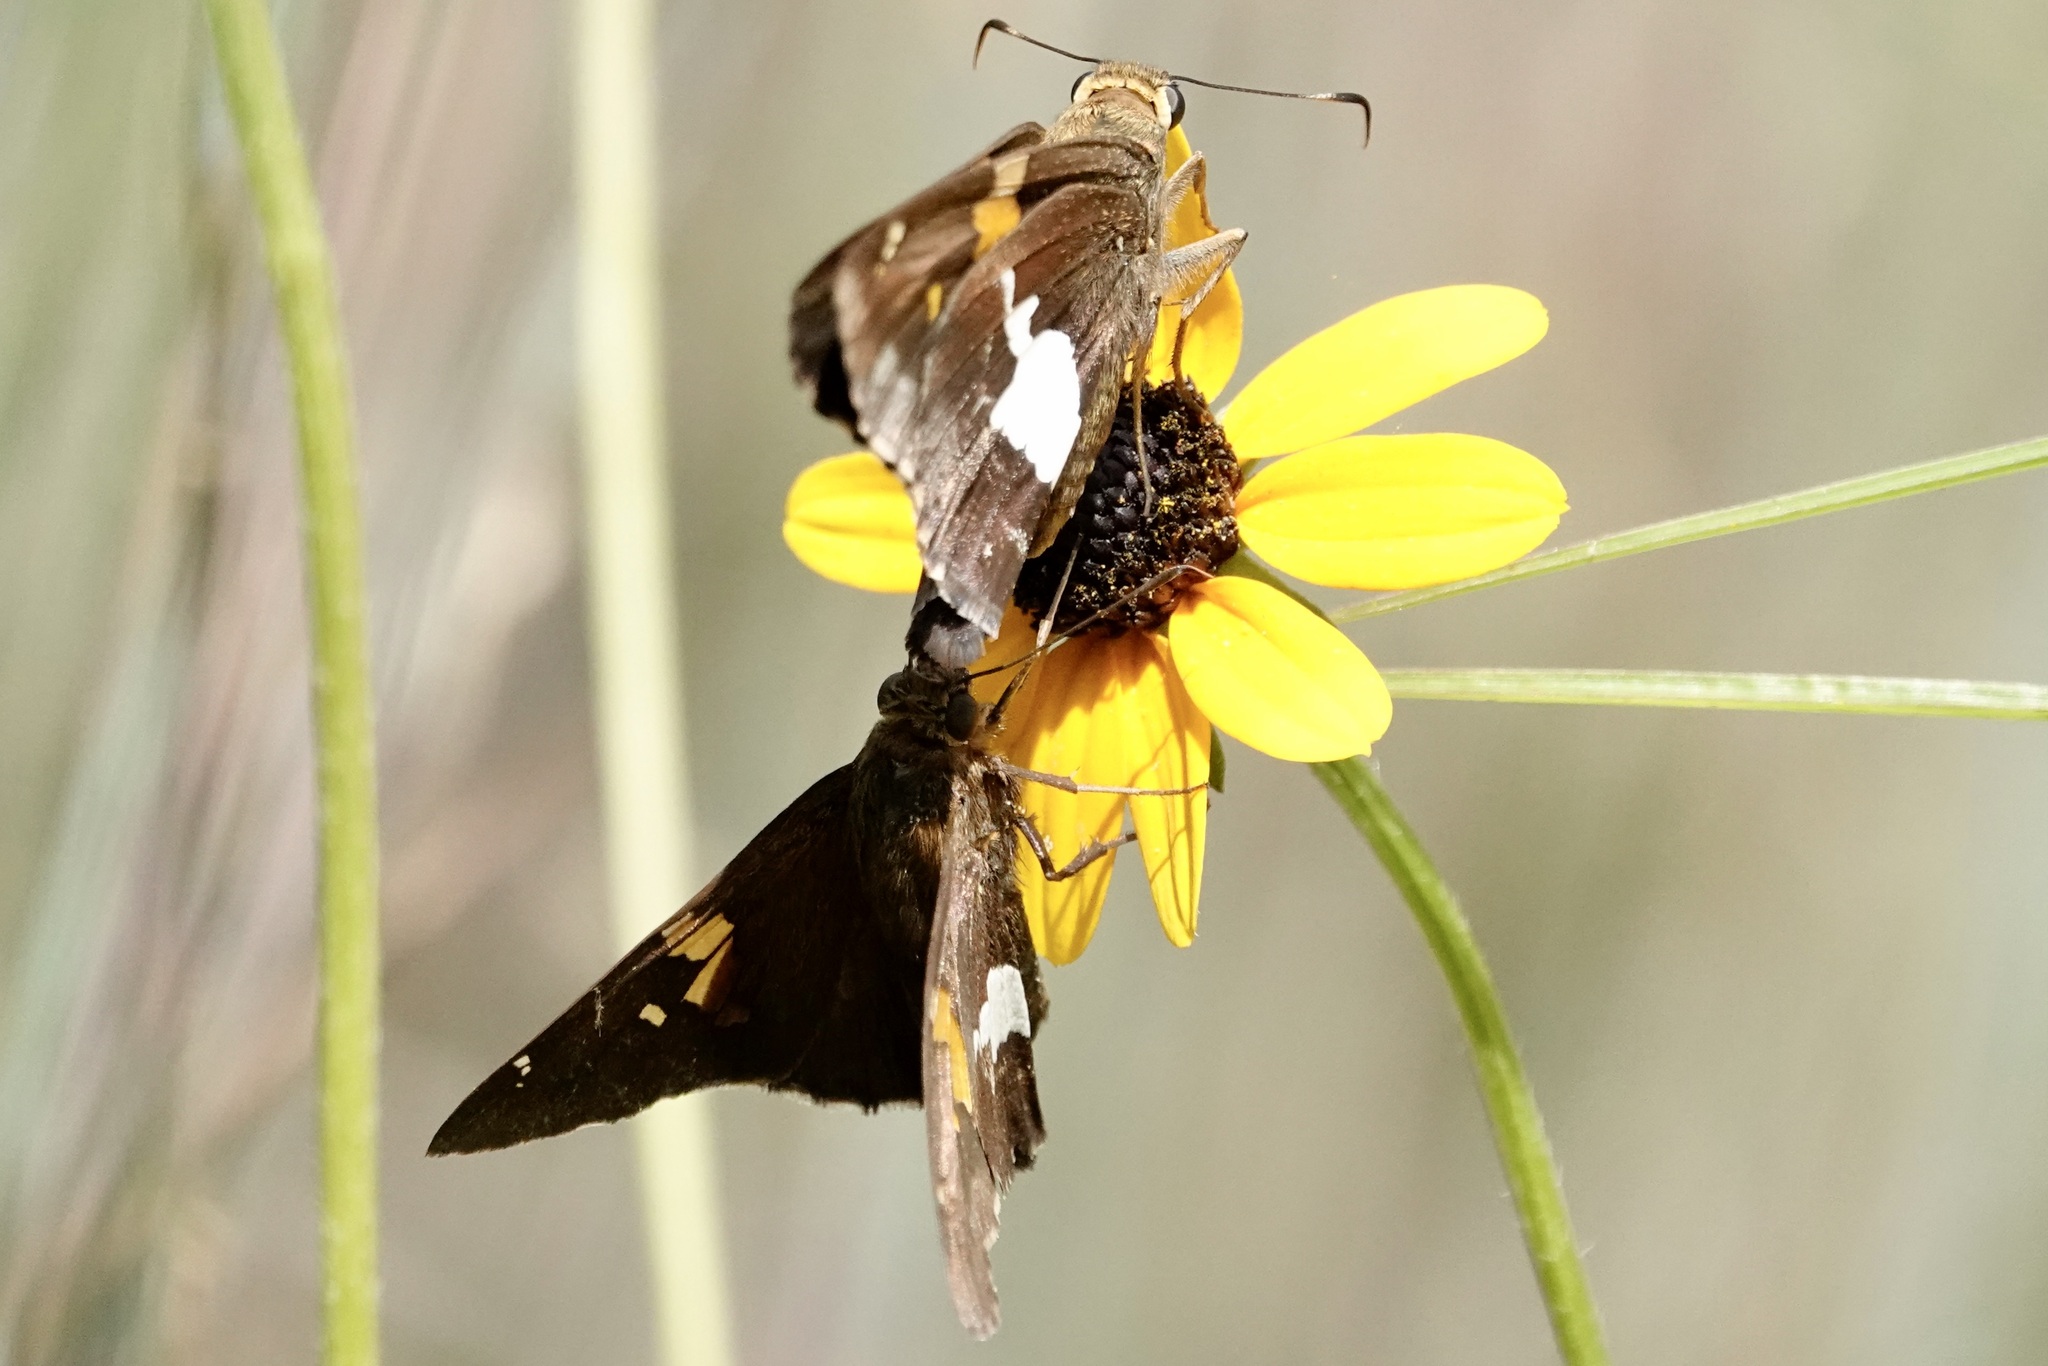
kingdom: Animalia
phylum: Arthropoda
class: Insecta
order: Lepidoptera
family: Hesperiidae
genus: Epargyreus
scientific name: Epargyreus clarus
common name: Silver-spotted skipper
